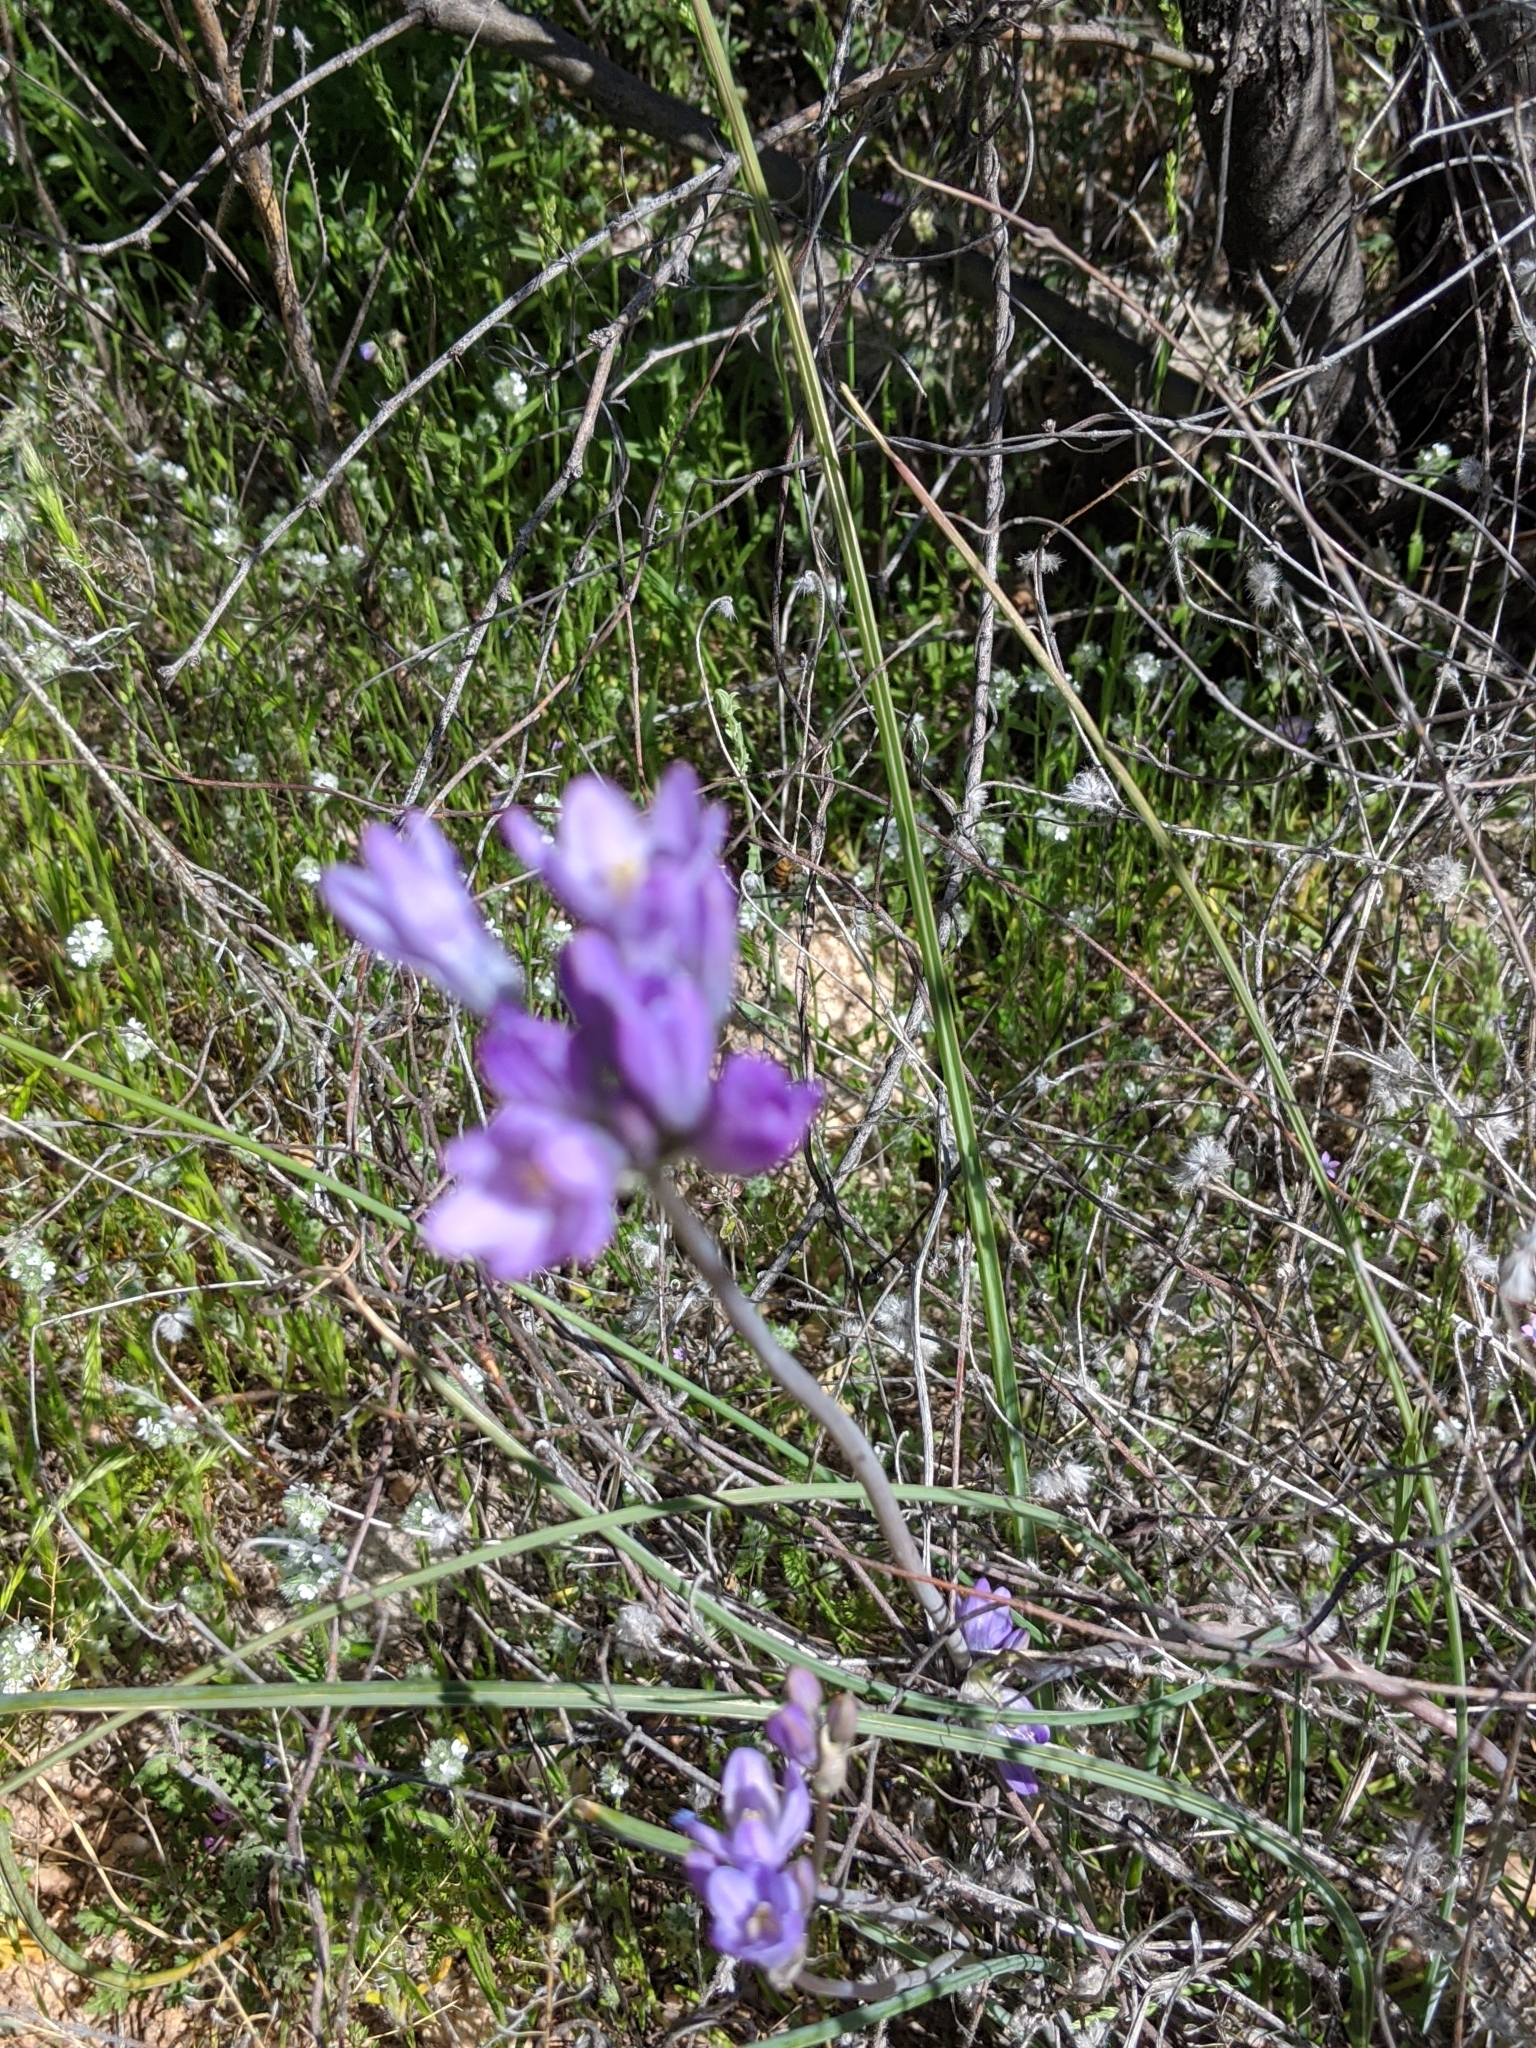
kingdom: Plantae
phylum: Tracheophyta
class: Liliopsida
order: Asparagales
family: Asparagaceae
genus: Dipterostemon
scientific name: Dipterostemon capitatus
